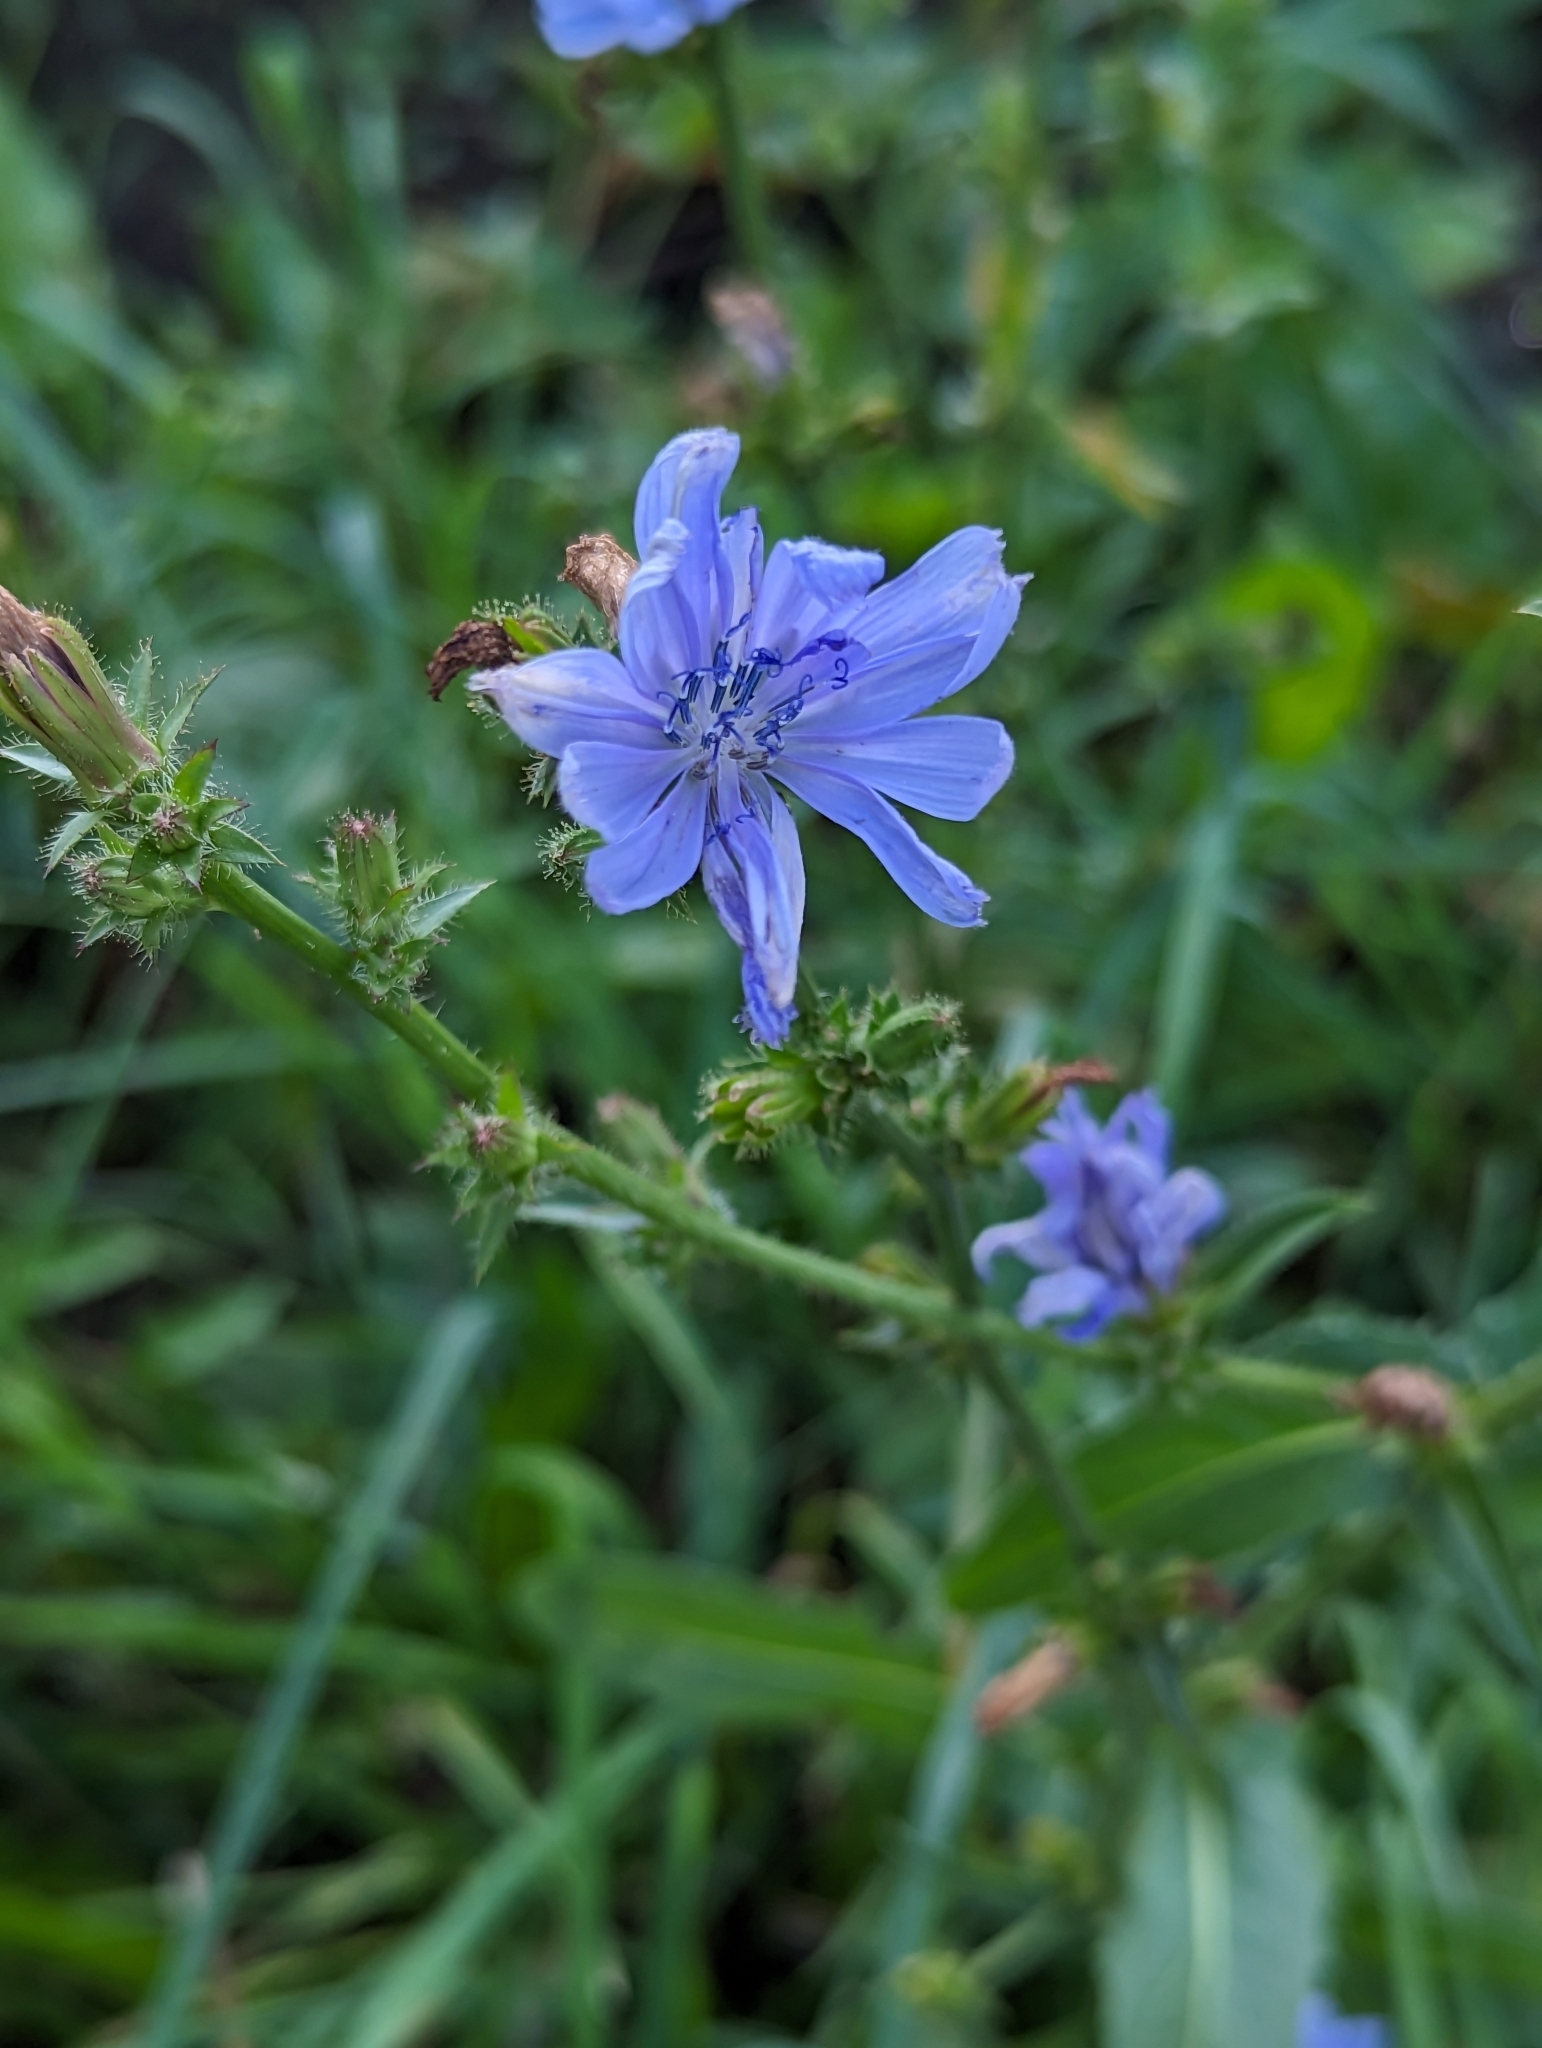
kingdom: Plantae
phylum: Tracheophyta
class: Magnoliopsida
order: Asterales
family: Asteraceae
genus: Cichorium
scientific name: Cichorium intybus
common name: Chicory
